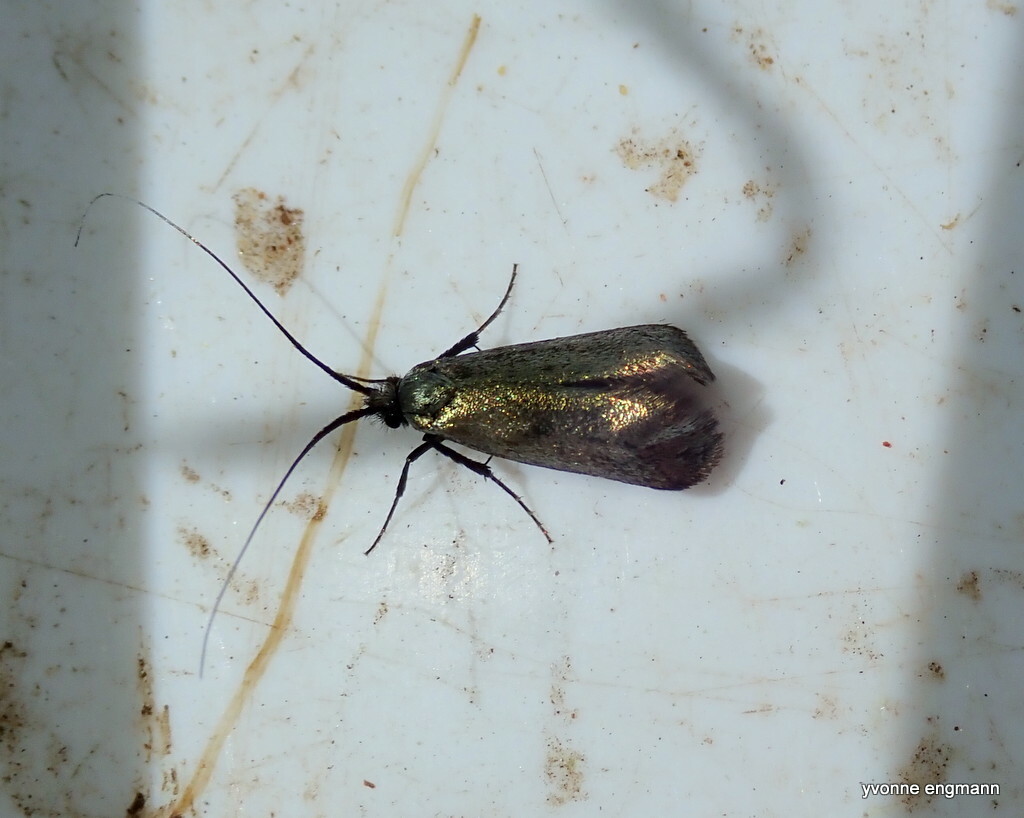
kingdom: Animalia
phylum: Arthropoda
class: Insecta
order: Lepidoptera
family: Adelidae
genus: Adela
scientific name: Adela viridella
